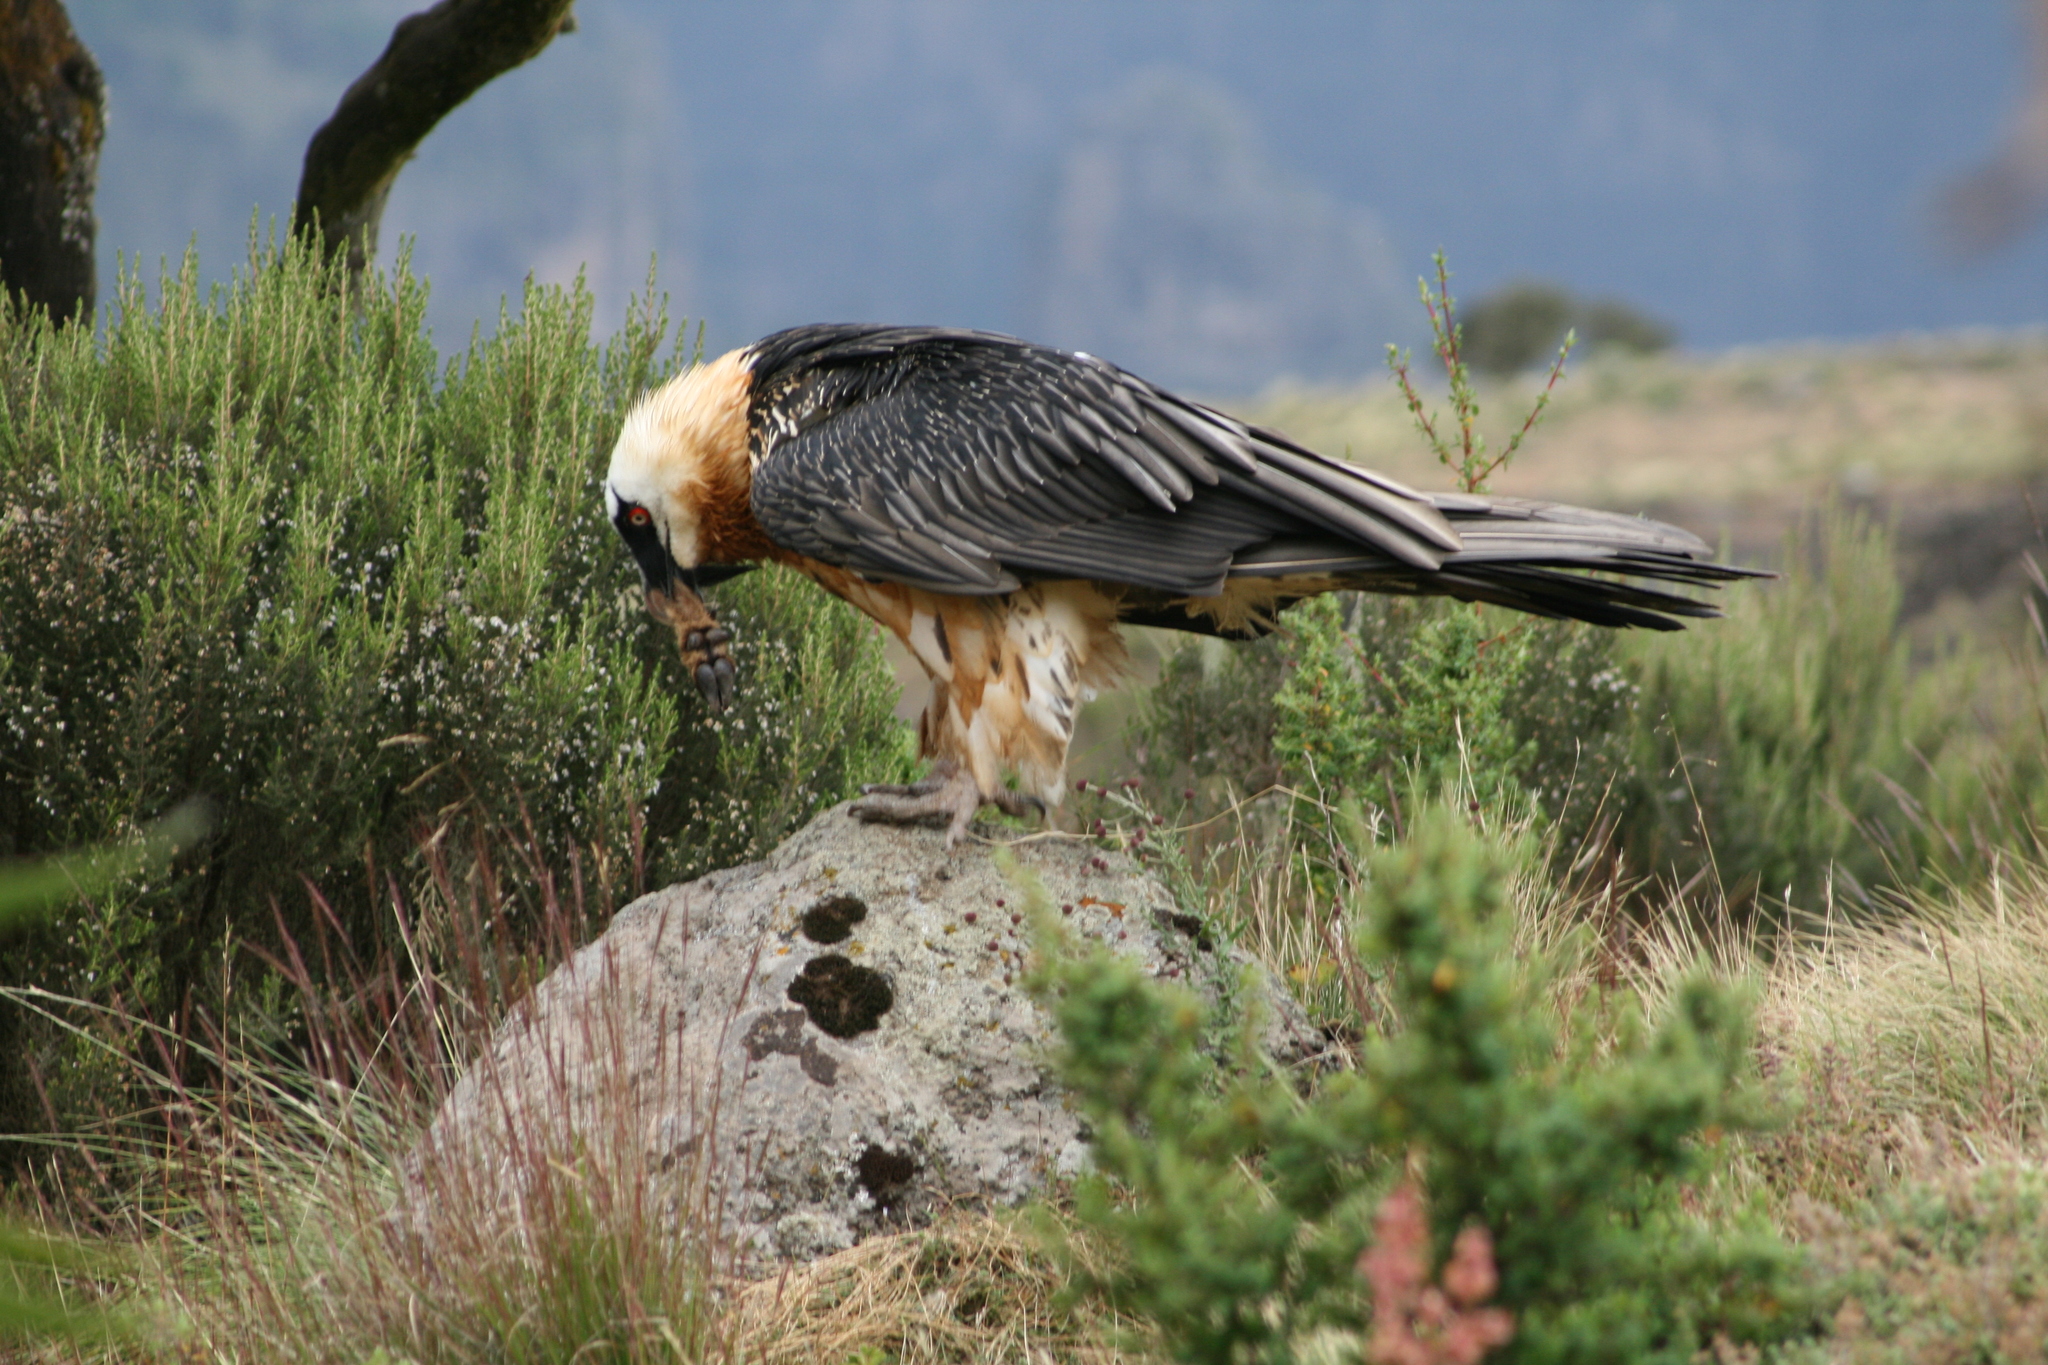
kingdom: Animalia
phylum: Chordata
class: Aves
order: Accipitriformes
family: Accipitridae
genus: Gypaetus
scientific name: Gypaetus barbatus
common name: Bearded vulture
